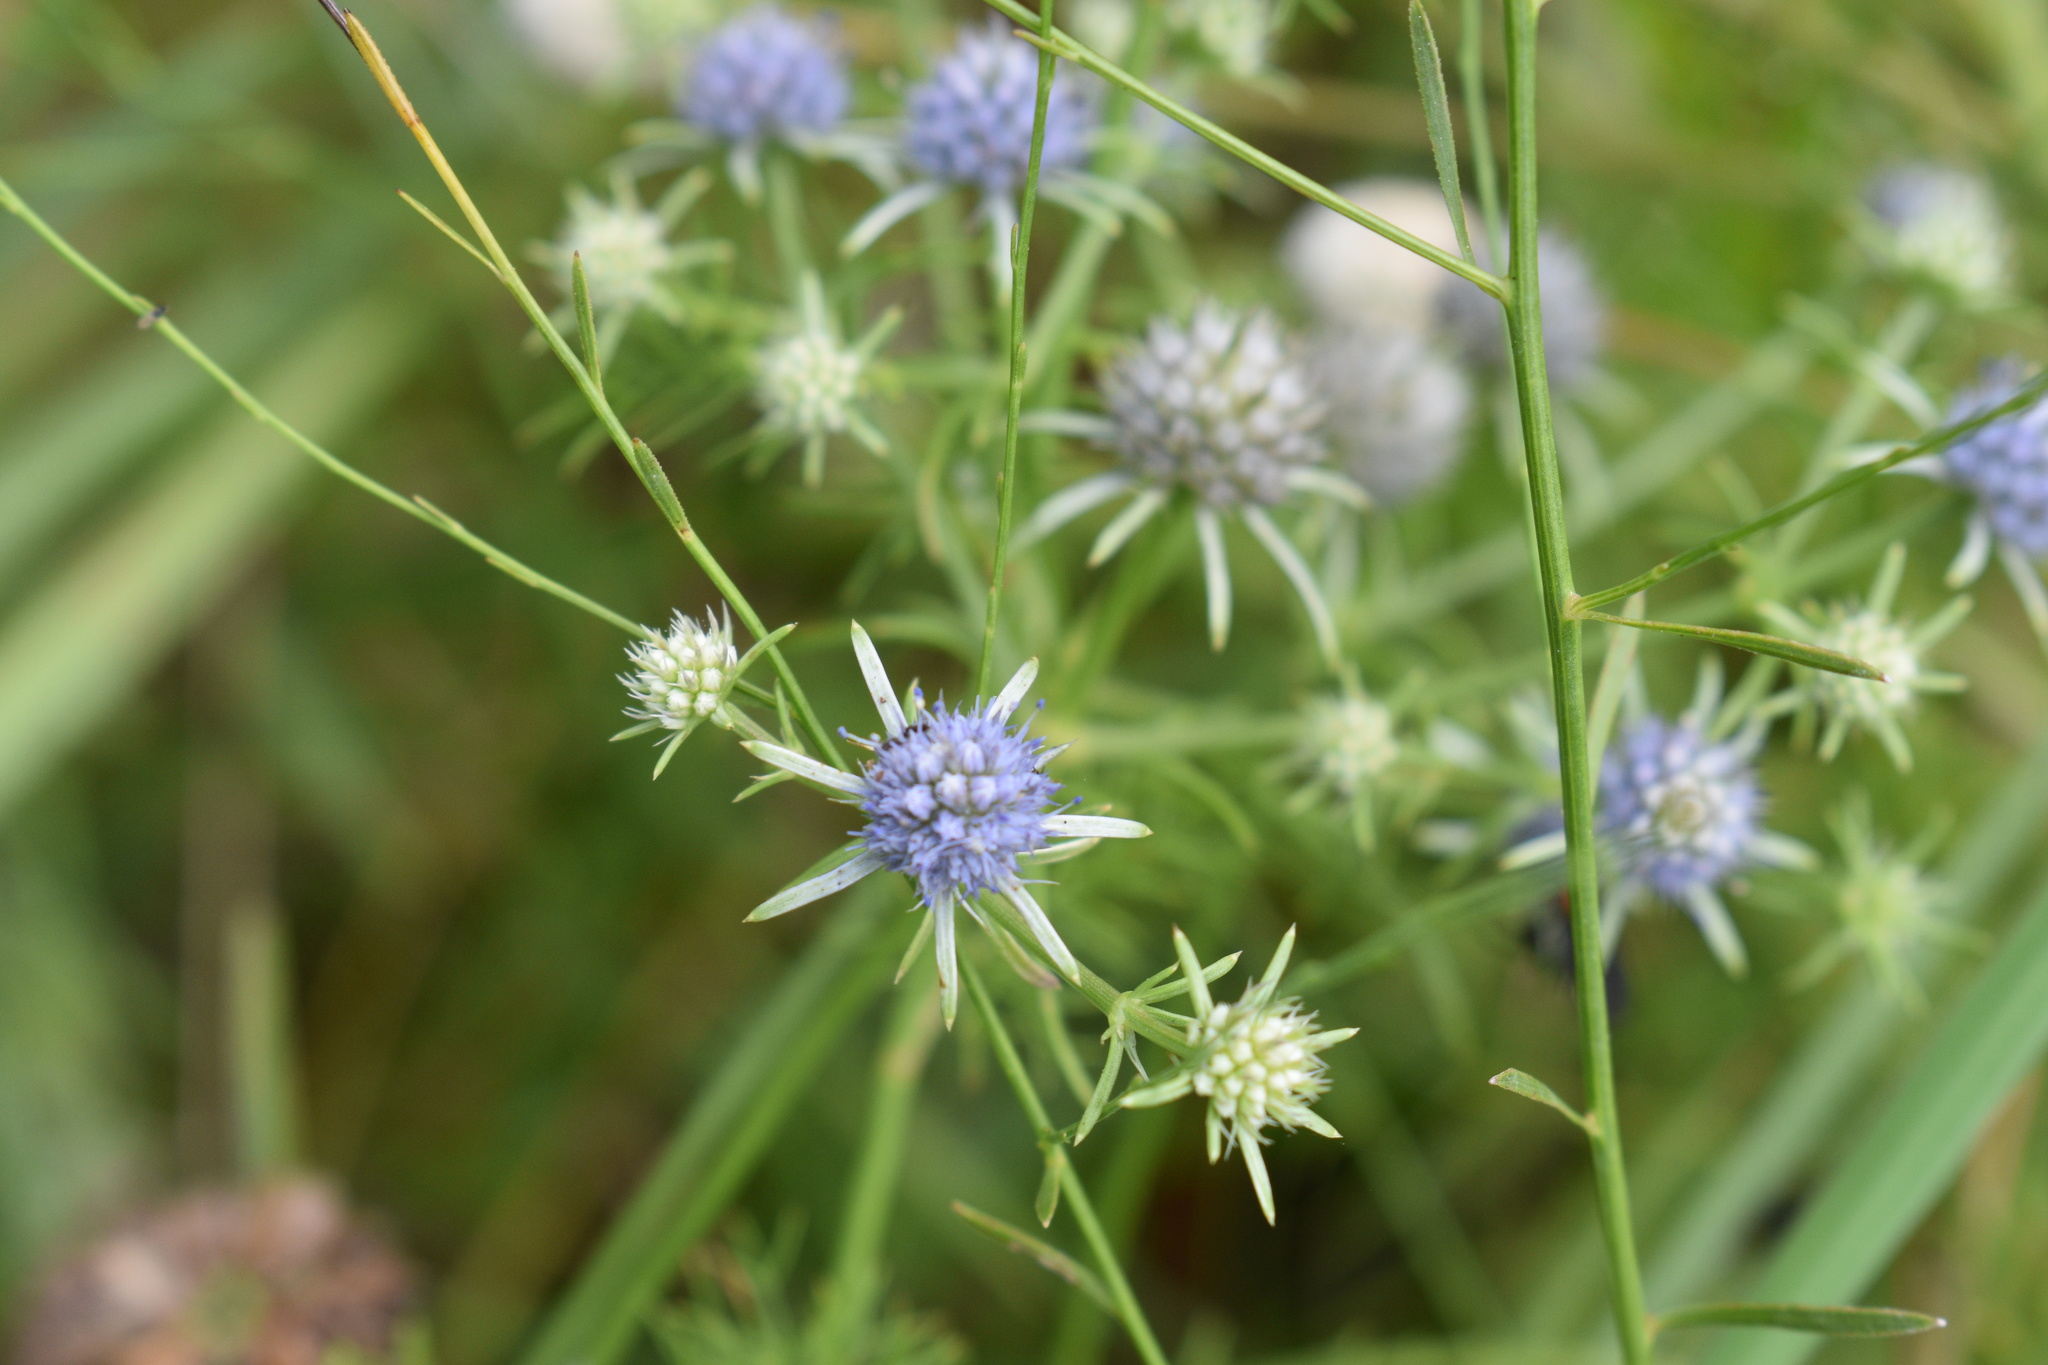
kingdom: Plantae
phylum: Tracheophyta
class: Magnoliopsida
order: Apiales
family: Apiaceae
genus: Eryngium
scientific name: Eryngium integrifolium
